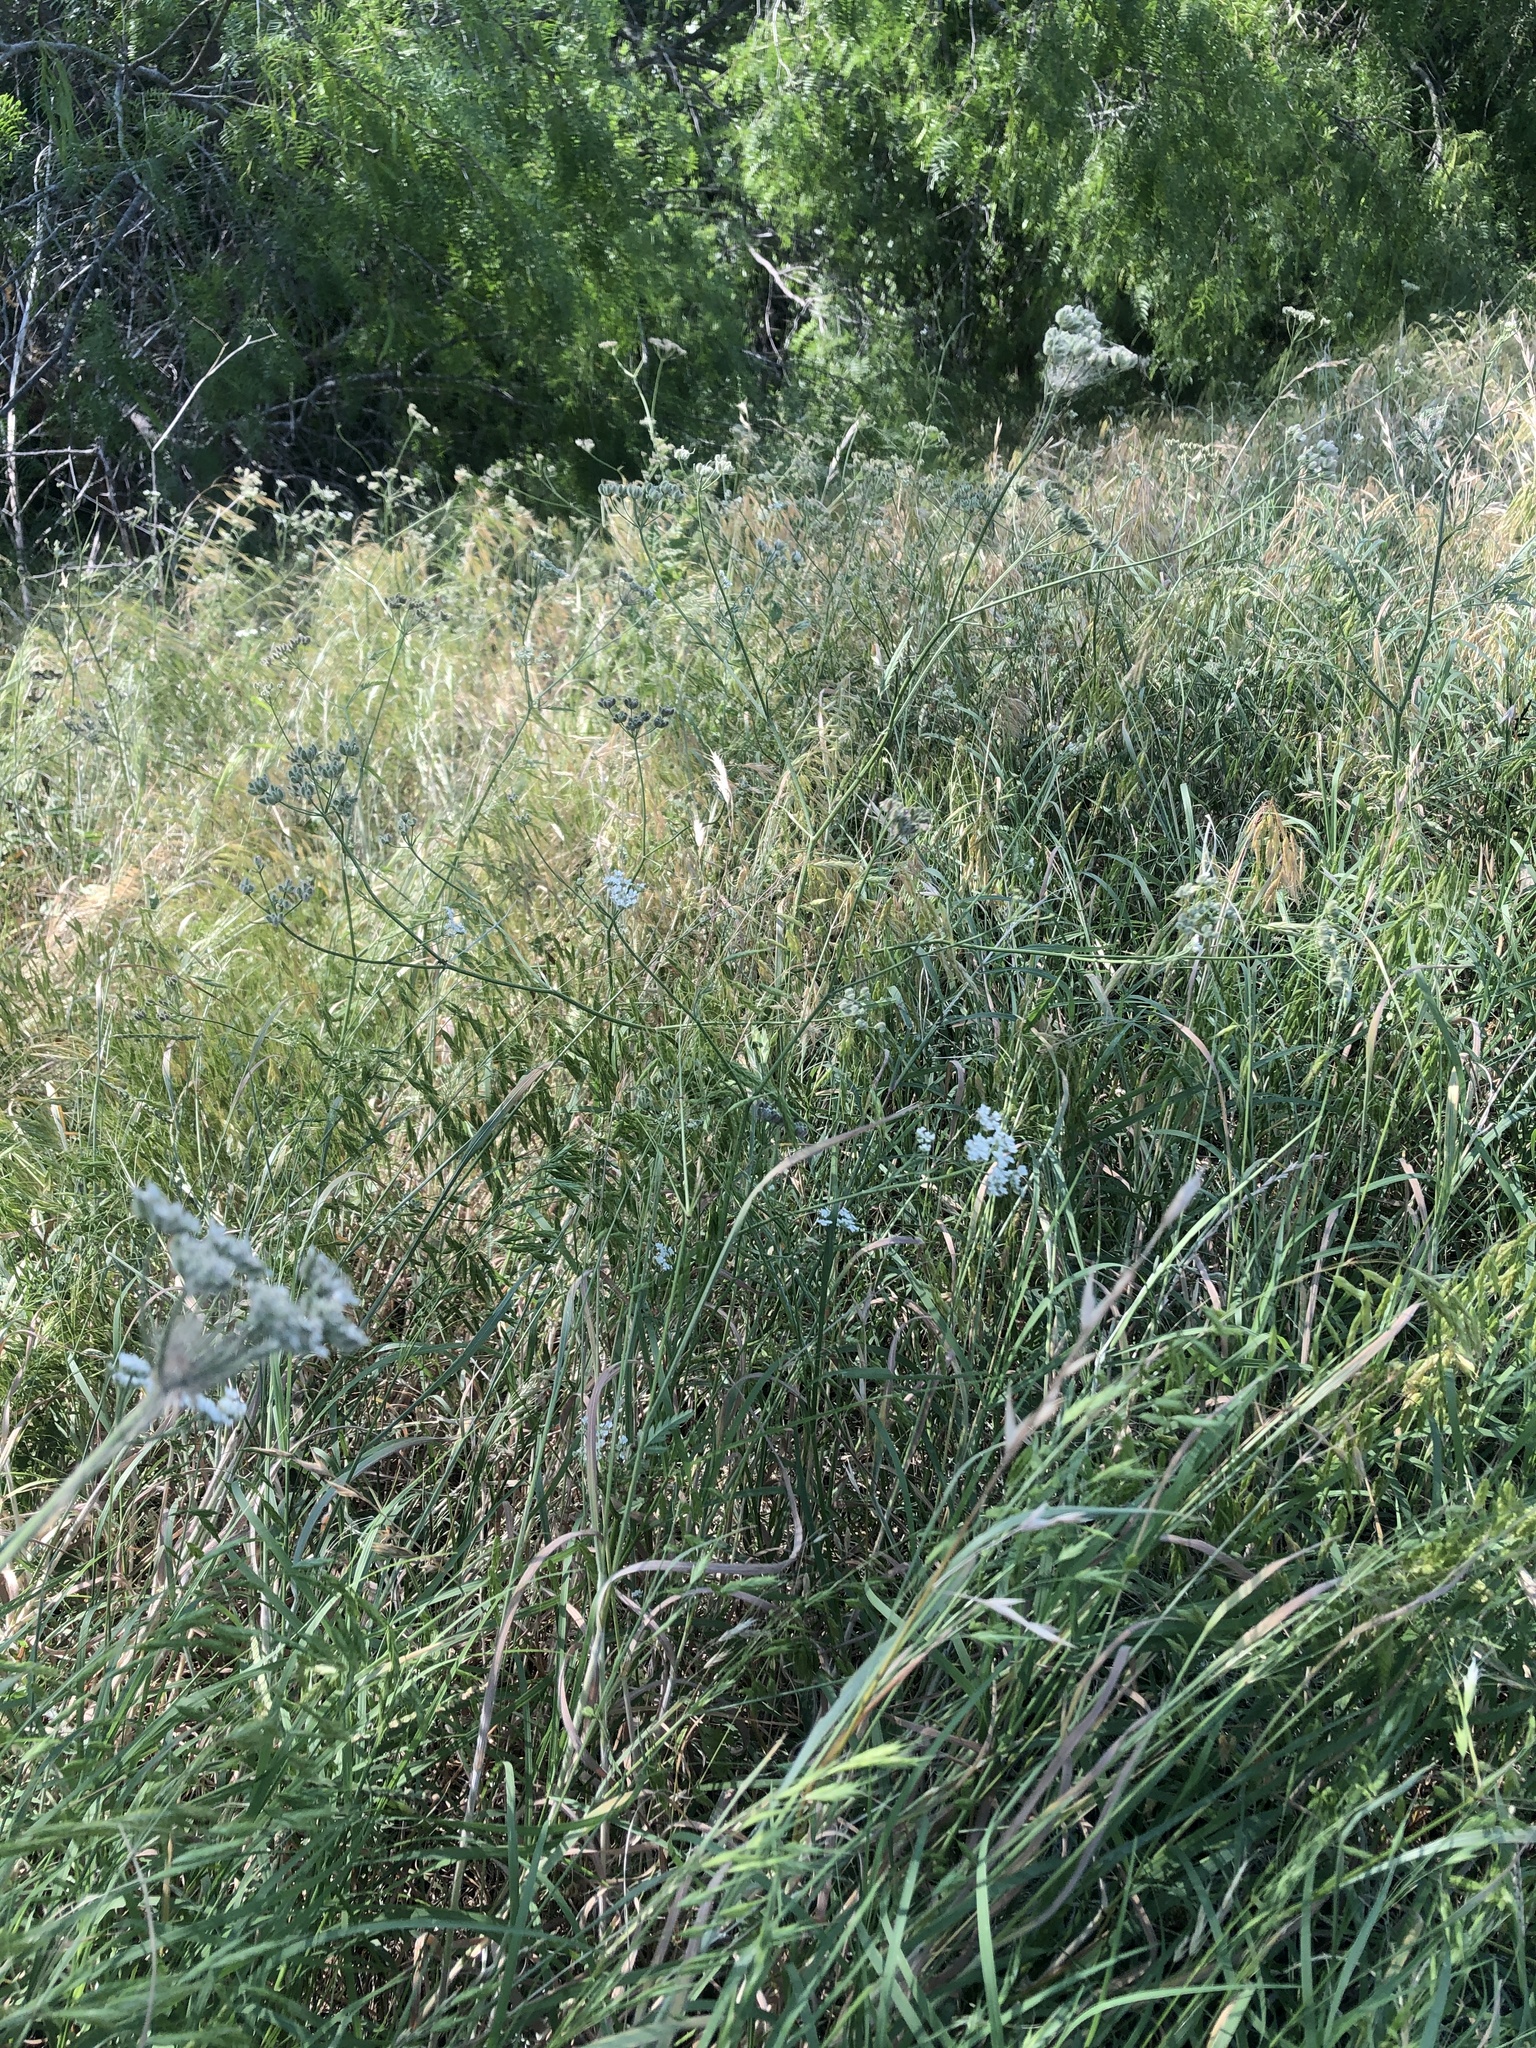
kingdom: Plantae
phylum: Tracheophyta
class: Magnoliopsida
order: Apiales
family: Apiaceae
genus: Torilis
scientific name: Torilis arvensis
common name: Spreading hedge-parsley
